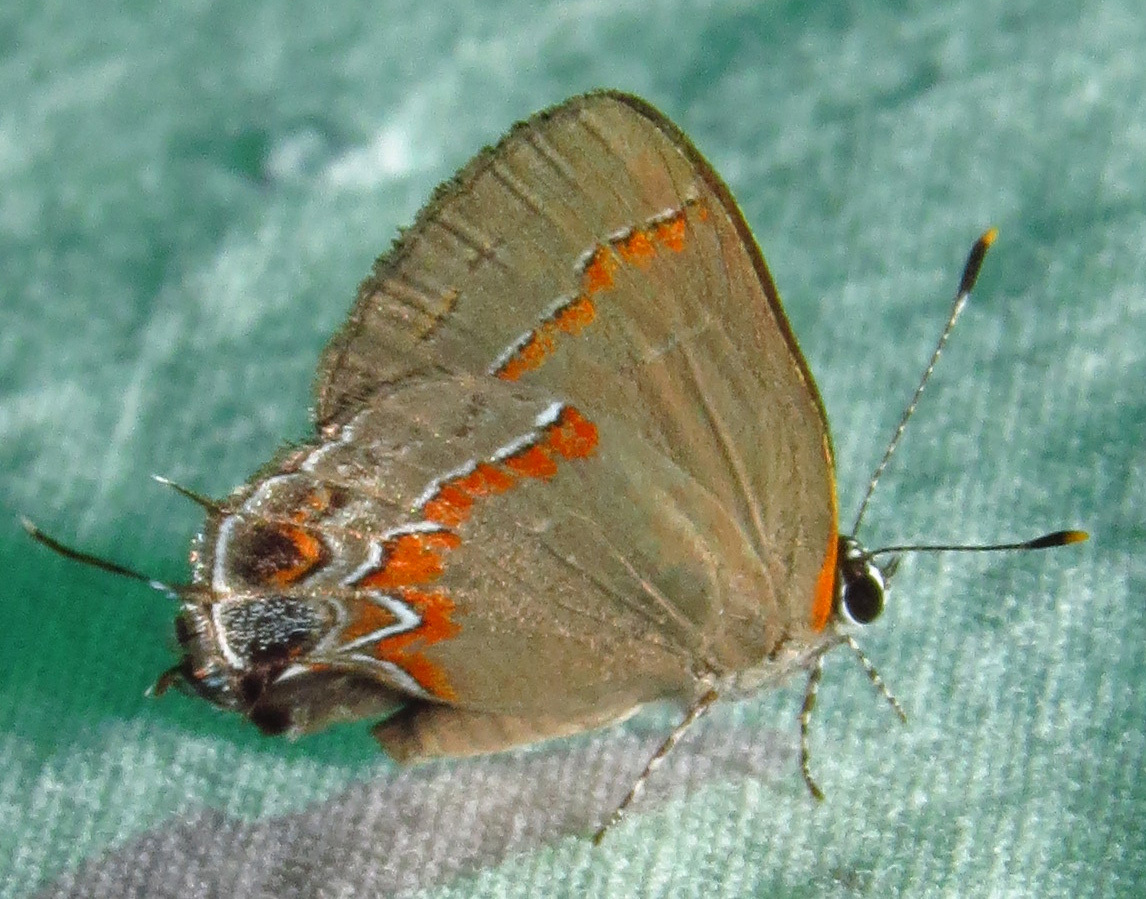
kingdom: Animalia
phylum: Arthropoda
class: Insecta
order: Lepidoptera
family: Lycaenidae
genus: Calycopis
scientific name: Calycopis cecrops
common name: Red-banded hairstreak
